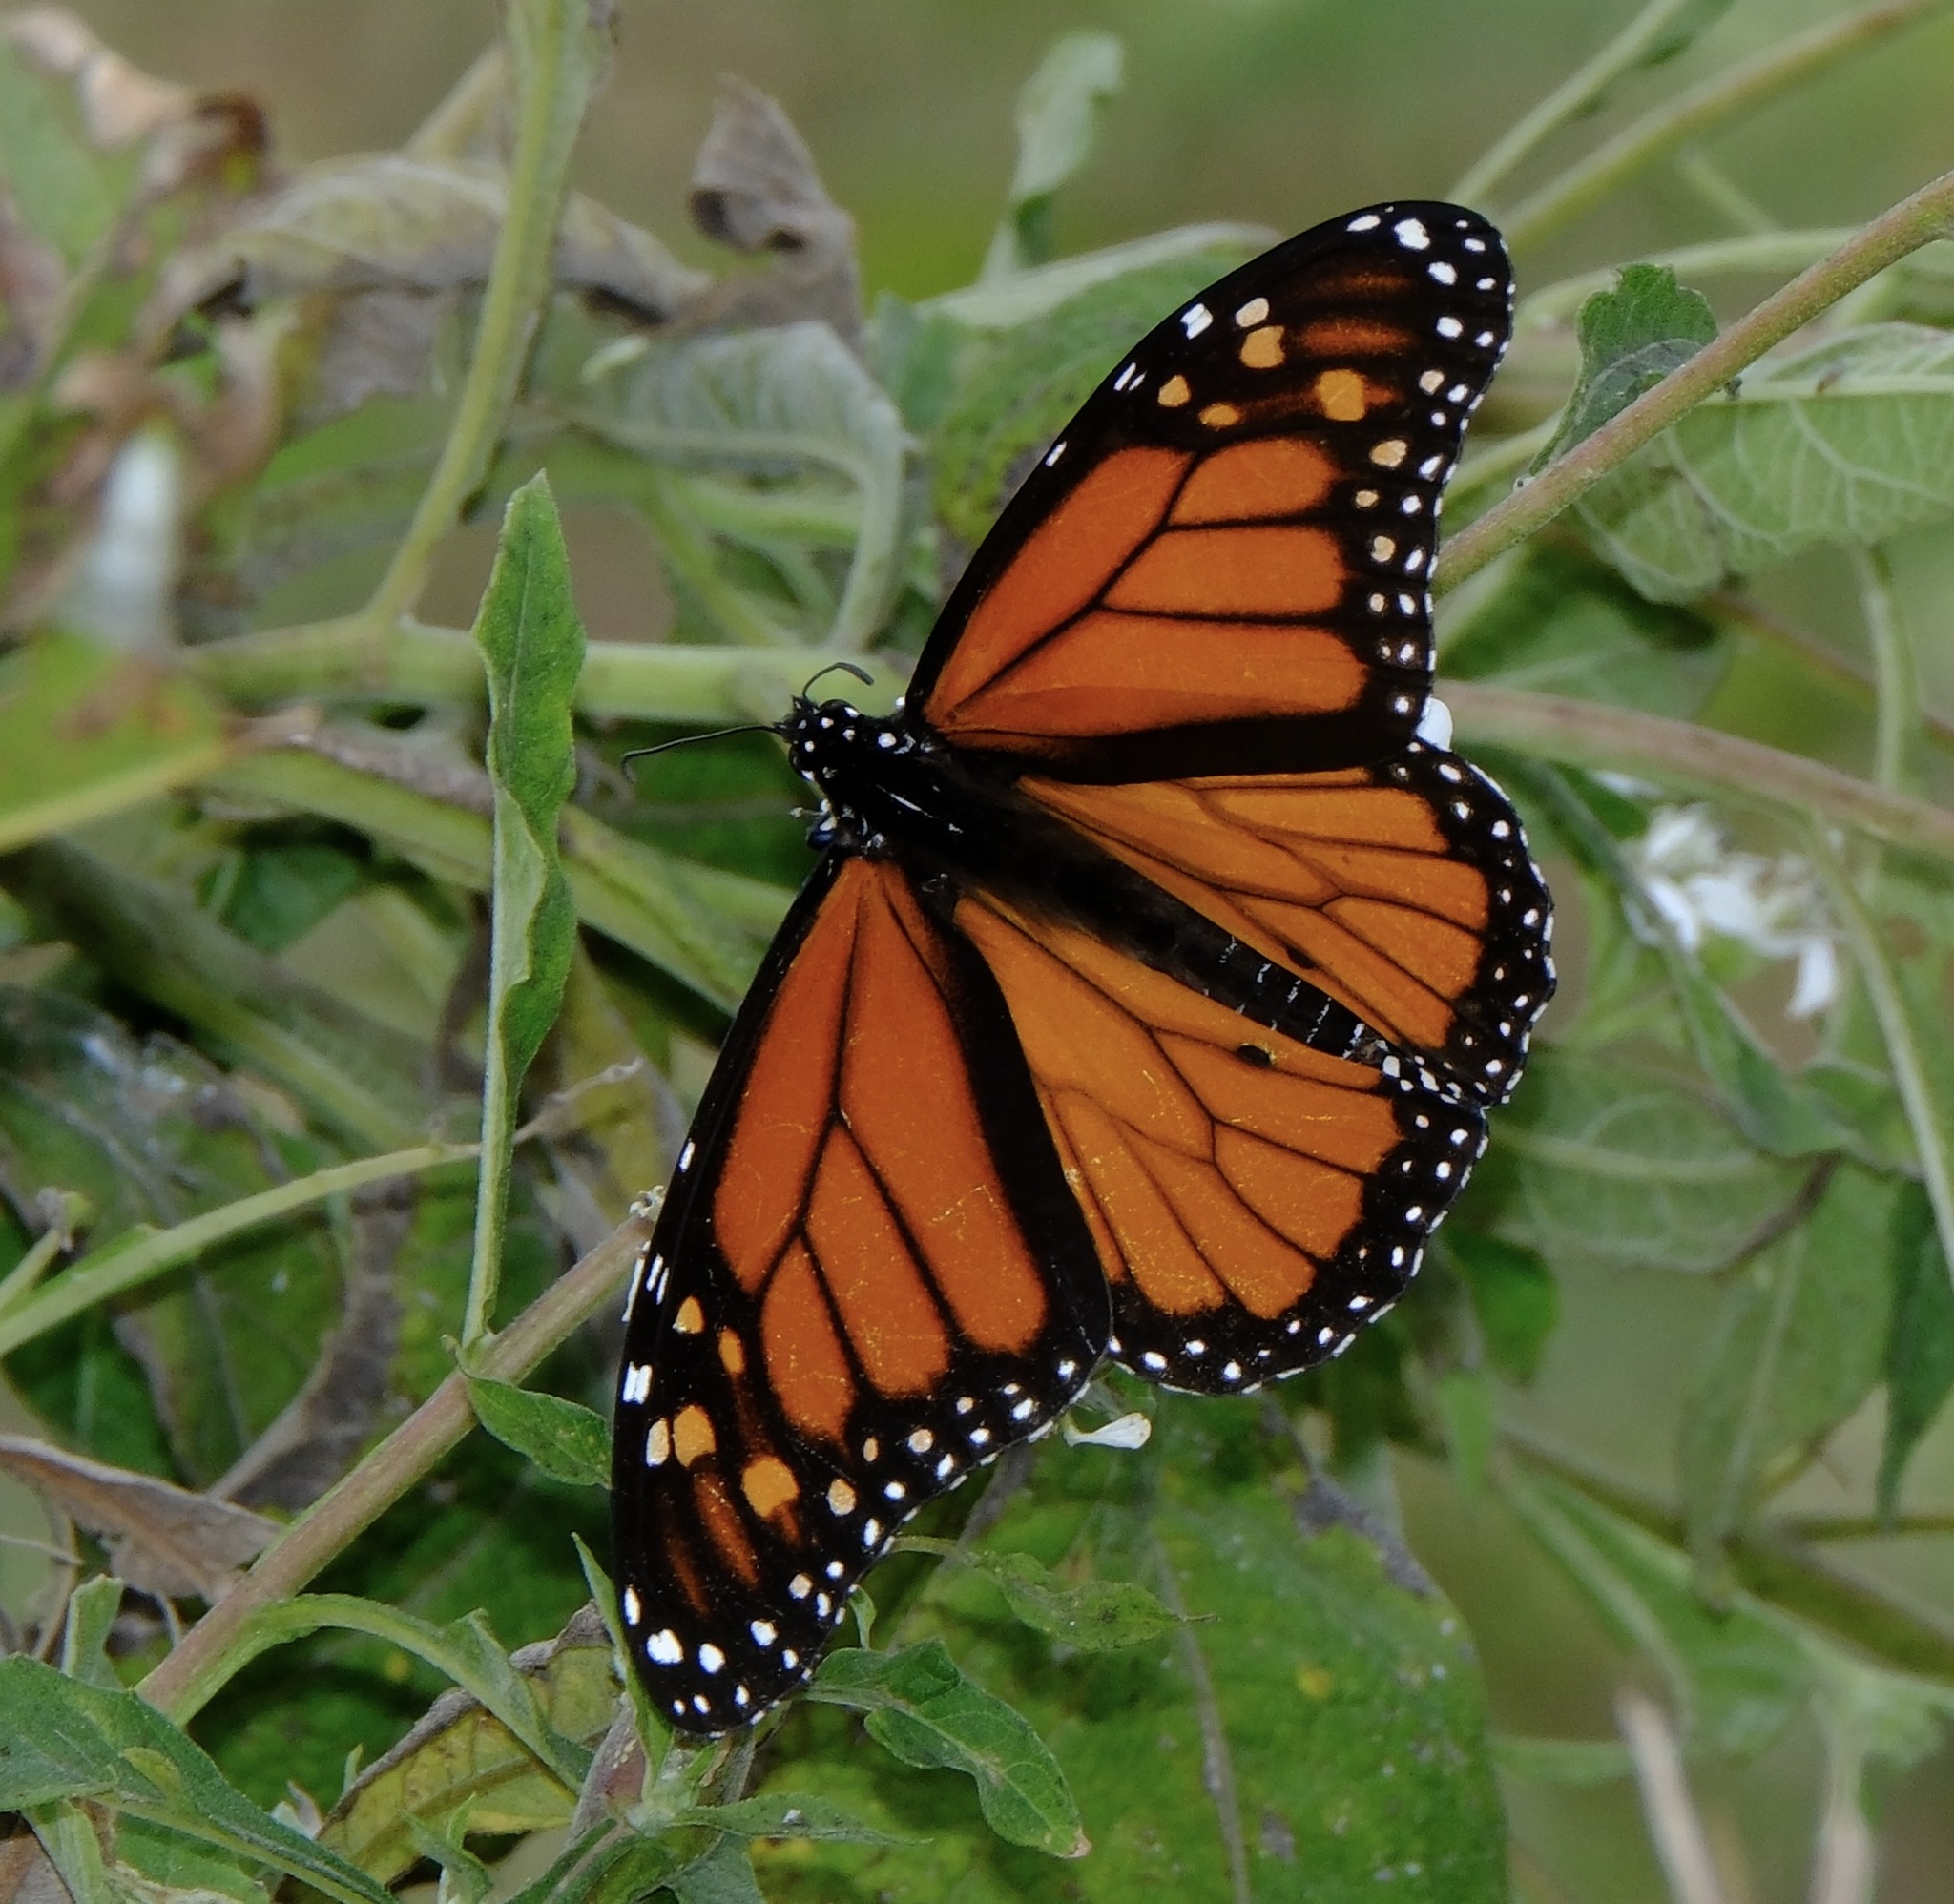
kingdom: Animalia
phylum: Arthropoda
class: Insecta
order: Lepidoptera
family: Nymphalidae
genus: Danaus
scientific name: Danaus plexippus
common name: Monarch
